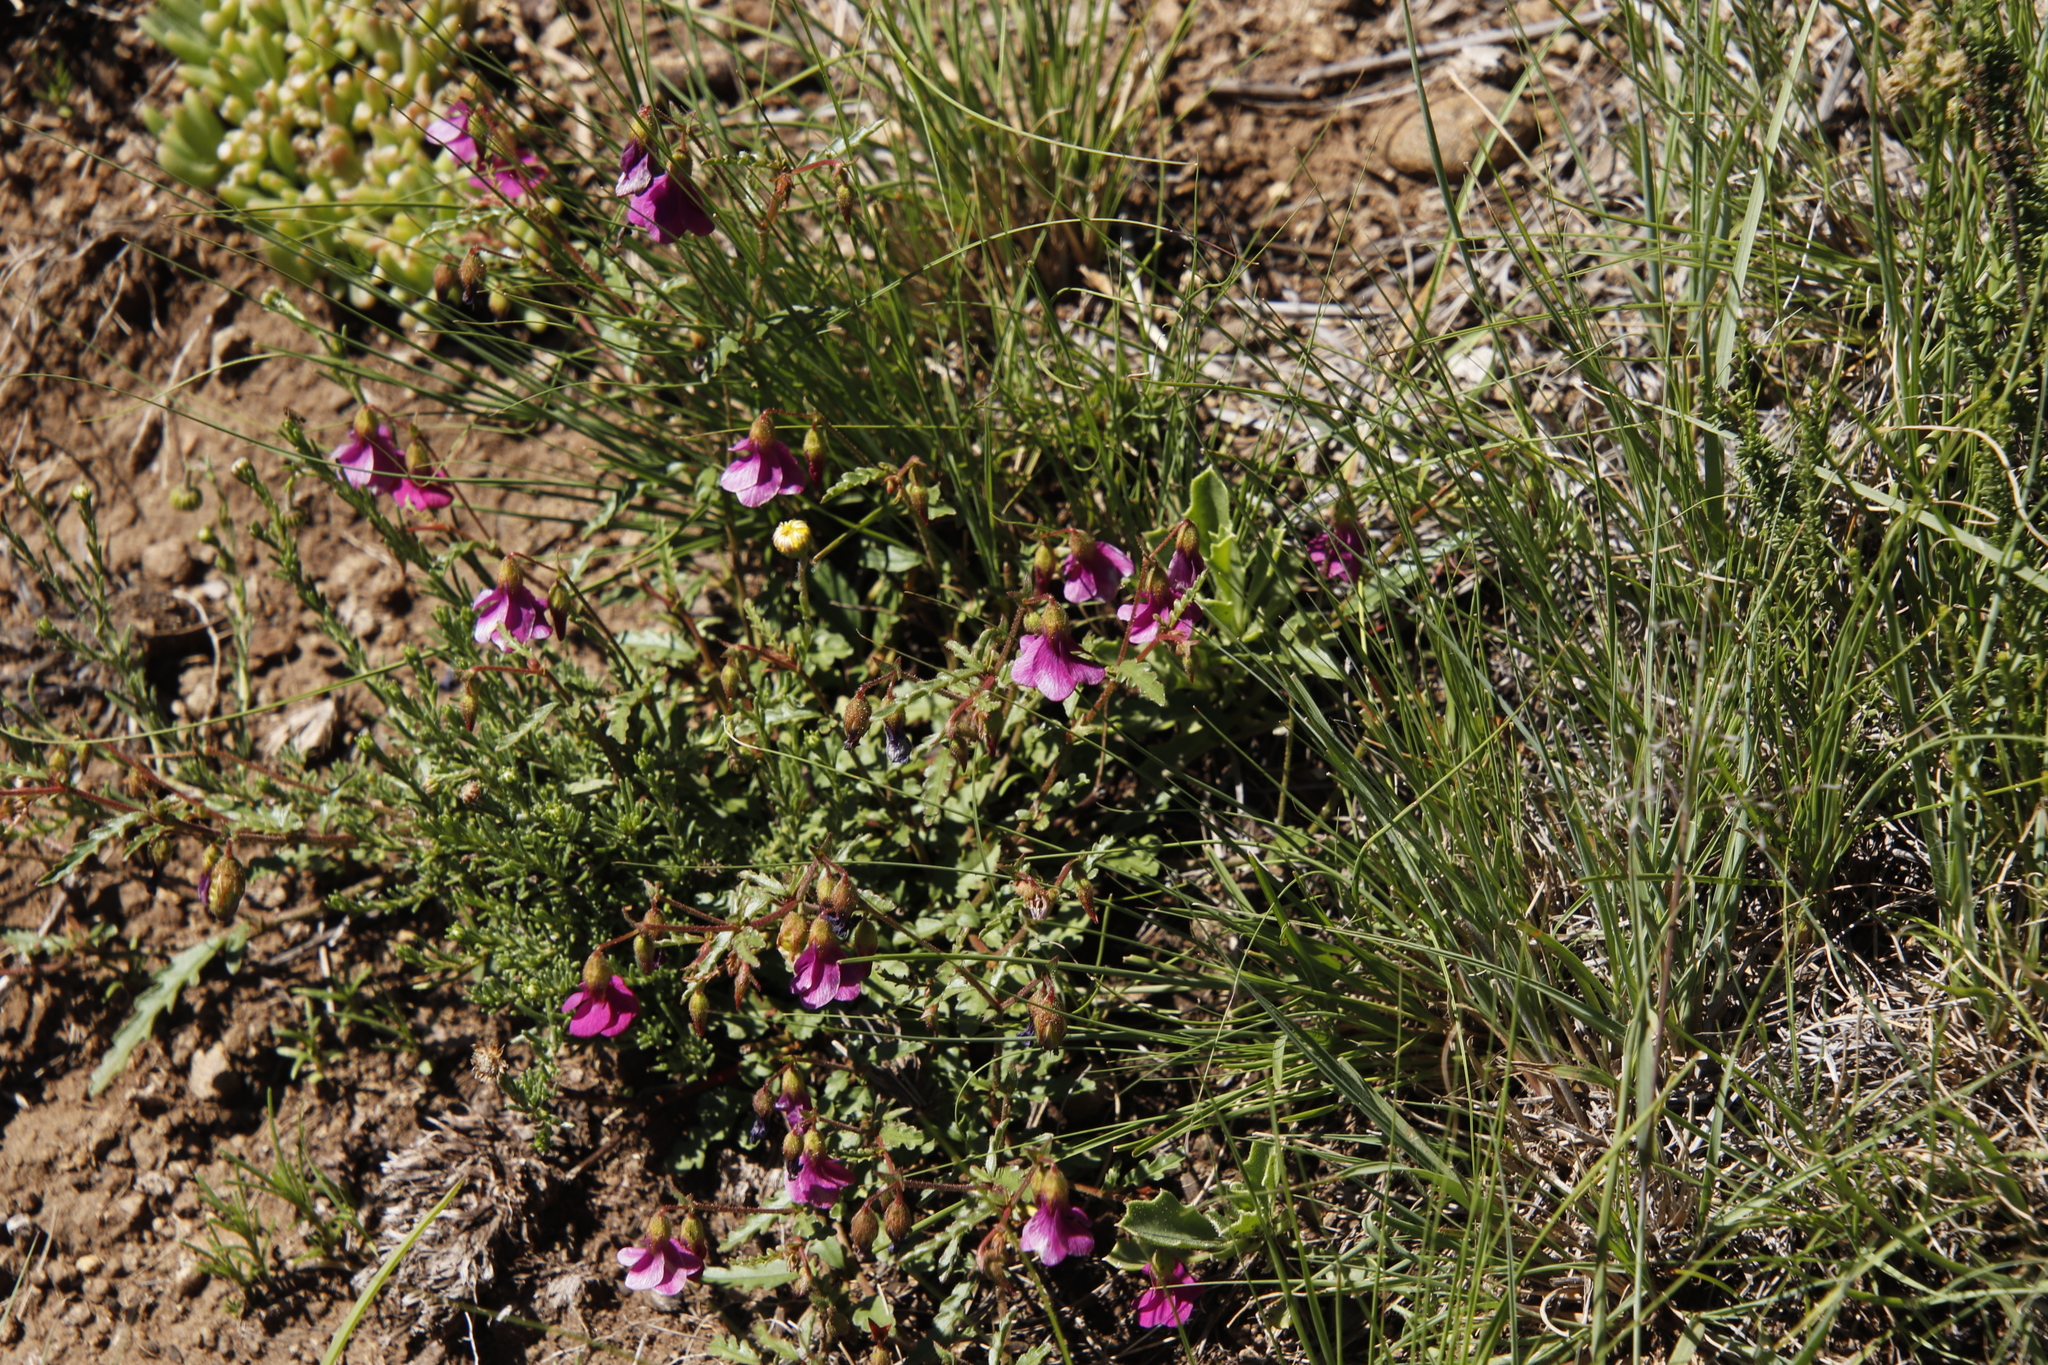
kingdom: Plantae
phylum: Tracheophyta
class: Magnoliopsida
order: Malvales
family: Malvaceae
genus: Hermannia
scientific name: Hermannia coccocarpa
